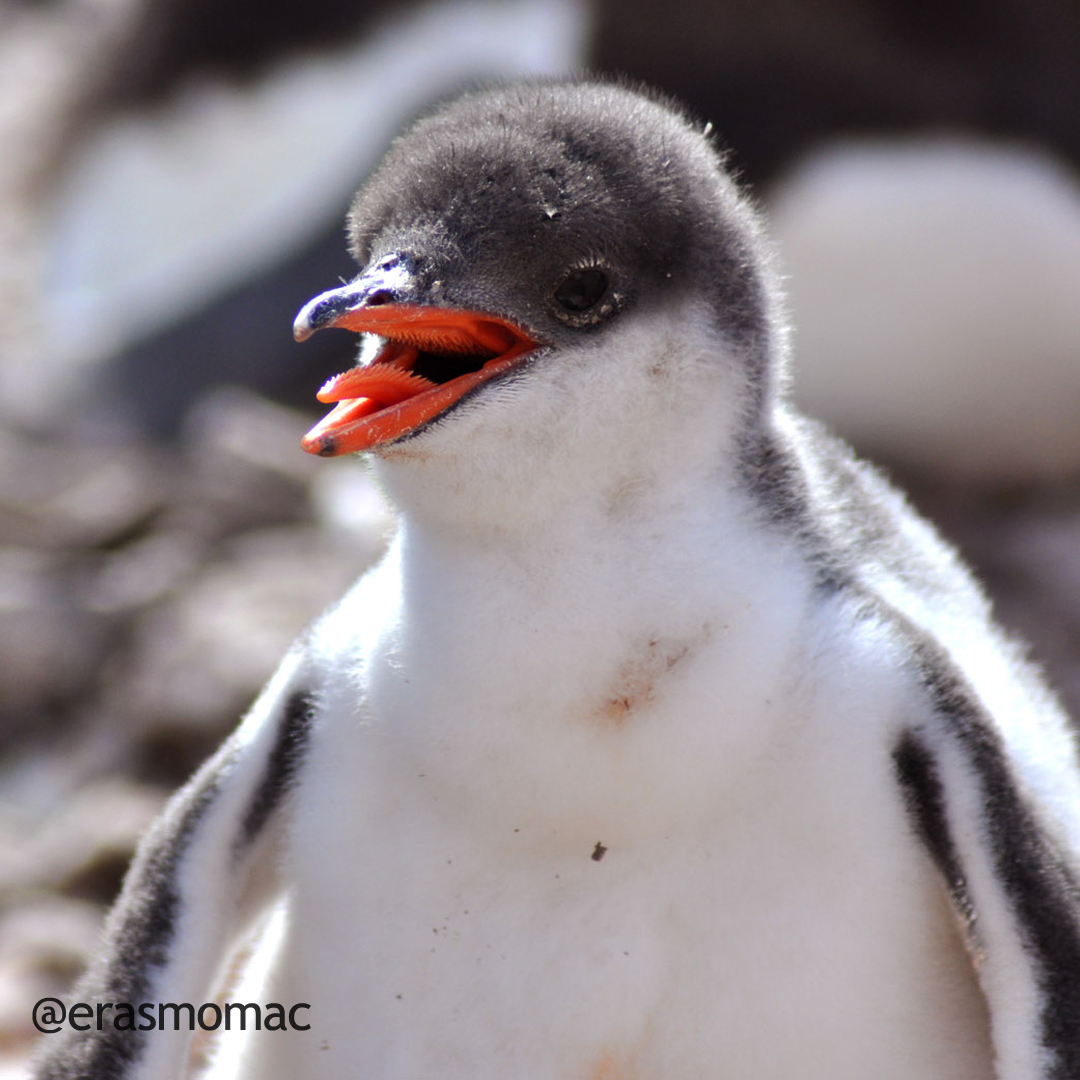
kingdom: Animalia
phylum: Chordata
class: Aves
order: Sphenisciformes
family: Spheniscidae
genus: Pygoscelis
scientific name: Pygoscelis papua
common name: Gentoo penguin
